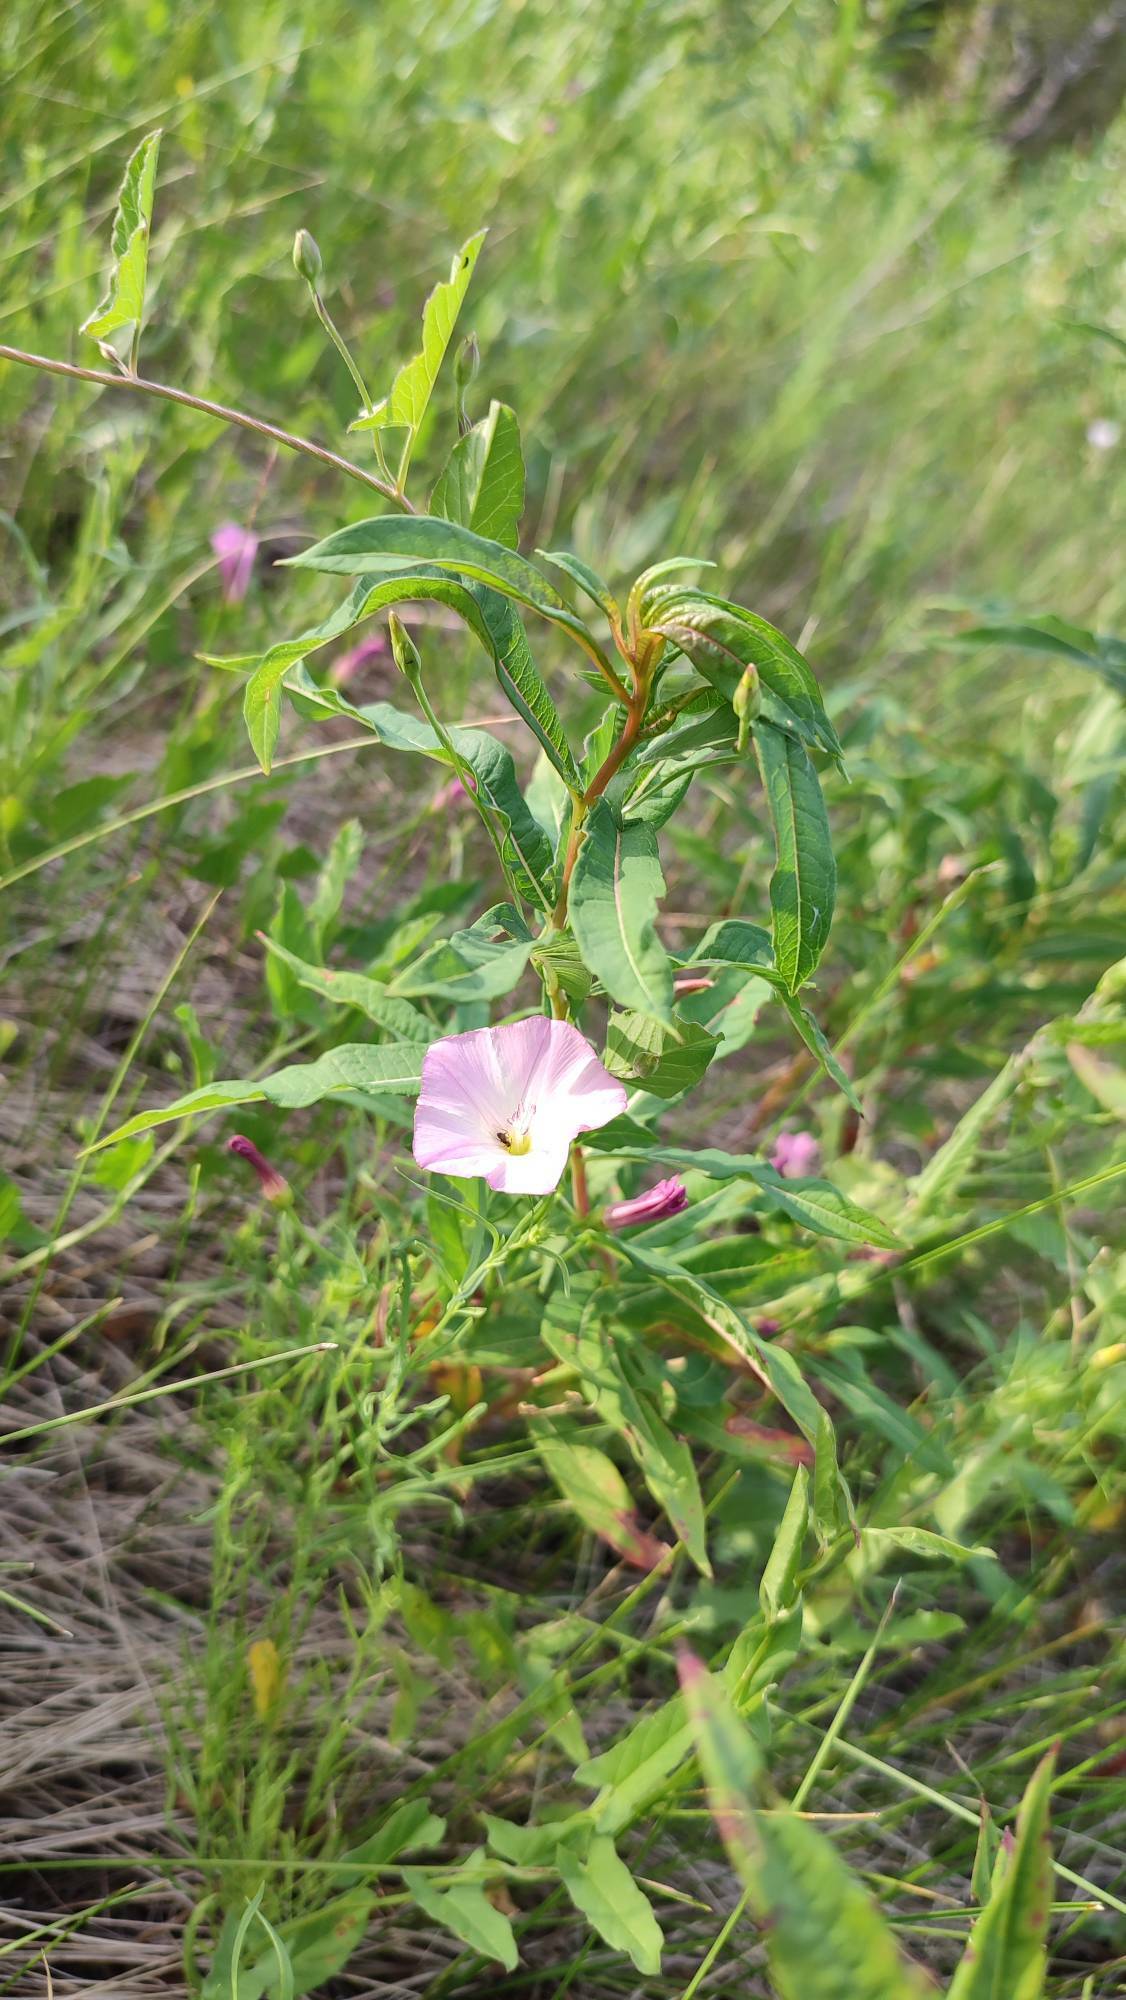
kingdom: Plantae
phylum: Tracheophyta
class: Magnoliopsida
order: Solanales
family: Convolvulaceae
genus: Convolvulus
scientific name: Convolvulus arvensis
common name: Field bindweed
